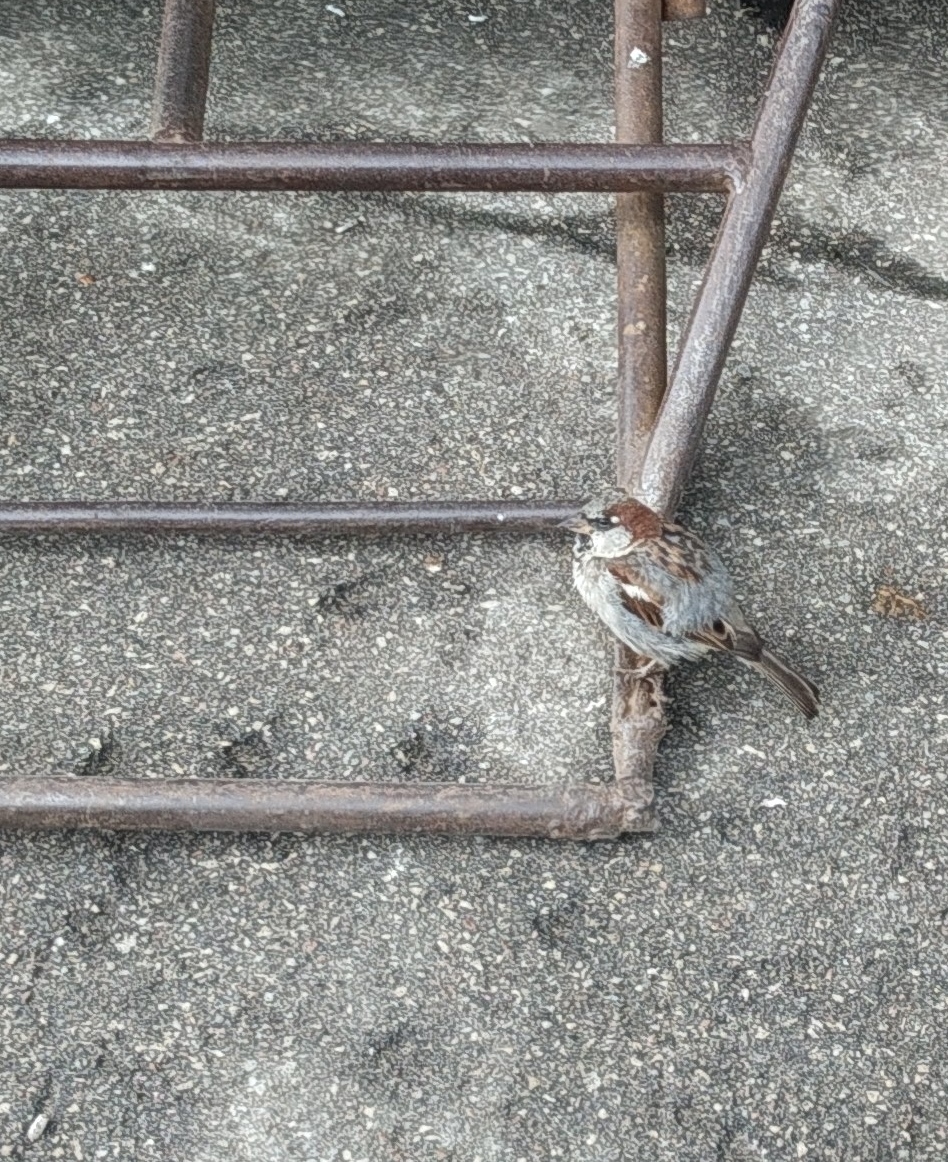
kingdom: Animalia
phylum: Chordata
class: Aves
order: Passeriformes
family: Passeridae
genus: Passer
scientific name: Passer domesticus
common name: House sparrow
